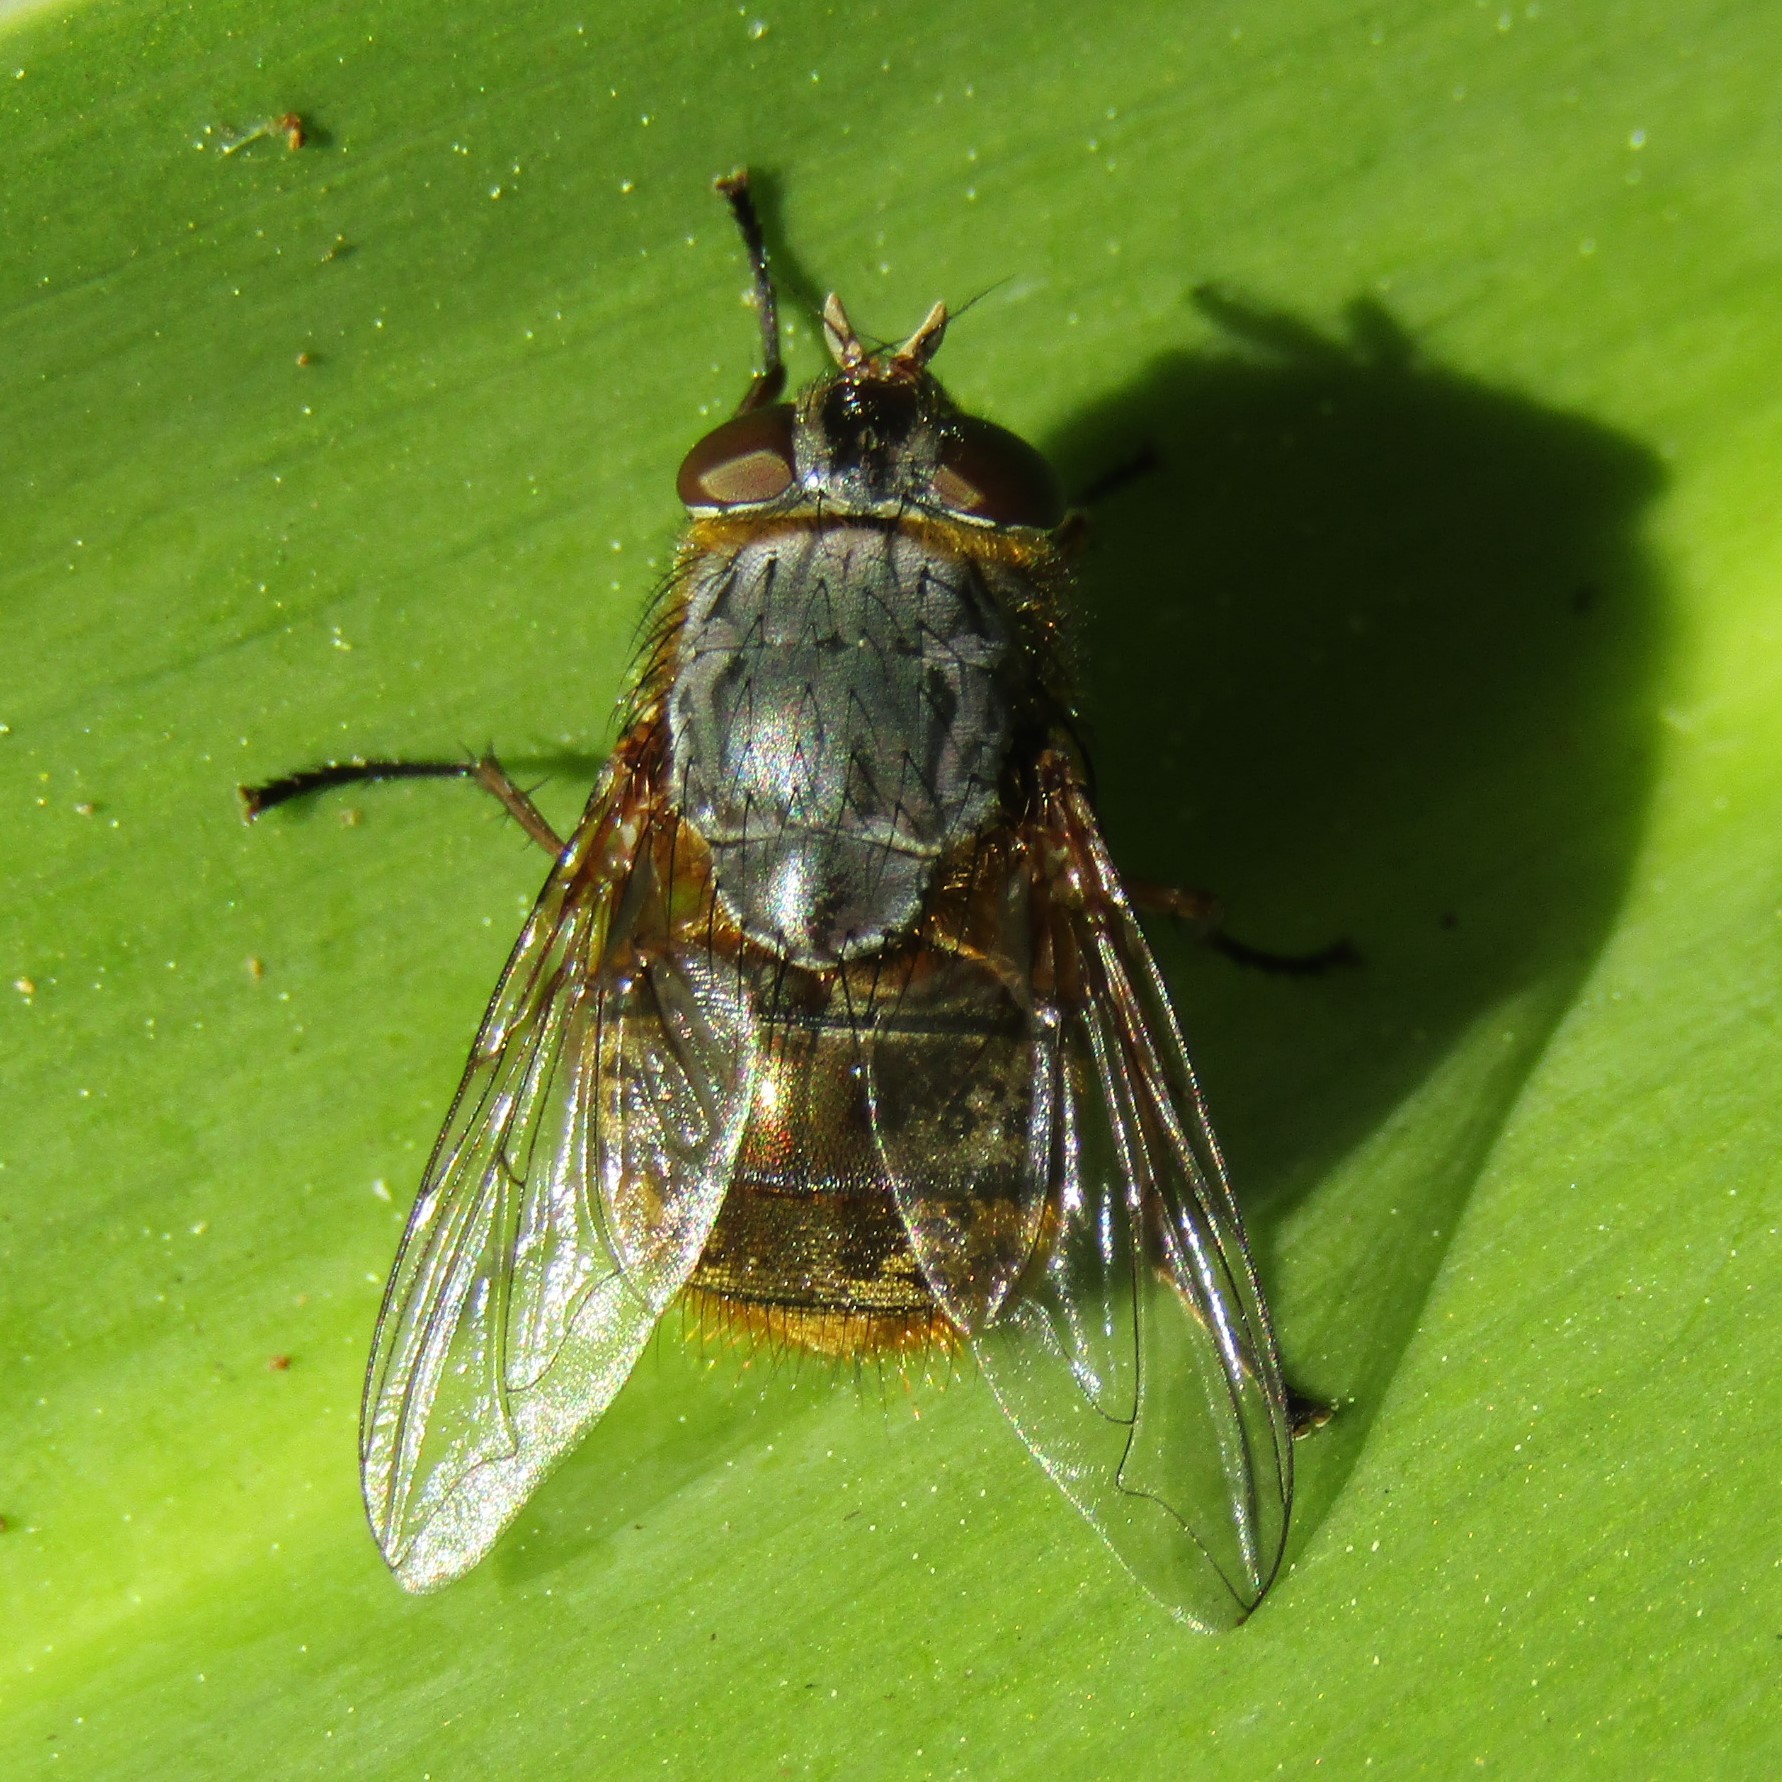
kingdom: Animalia
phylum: Arthropoda
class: Insecta
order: Diptera
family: Calliphoridae
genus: Calliphora
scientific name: Calliphora stygia
